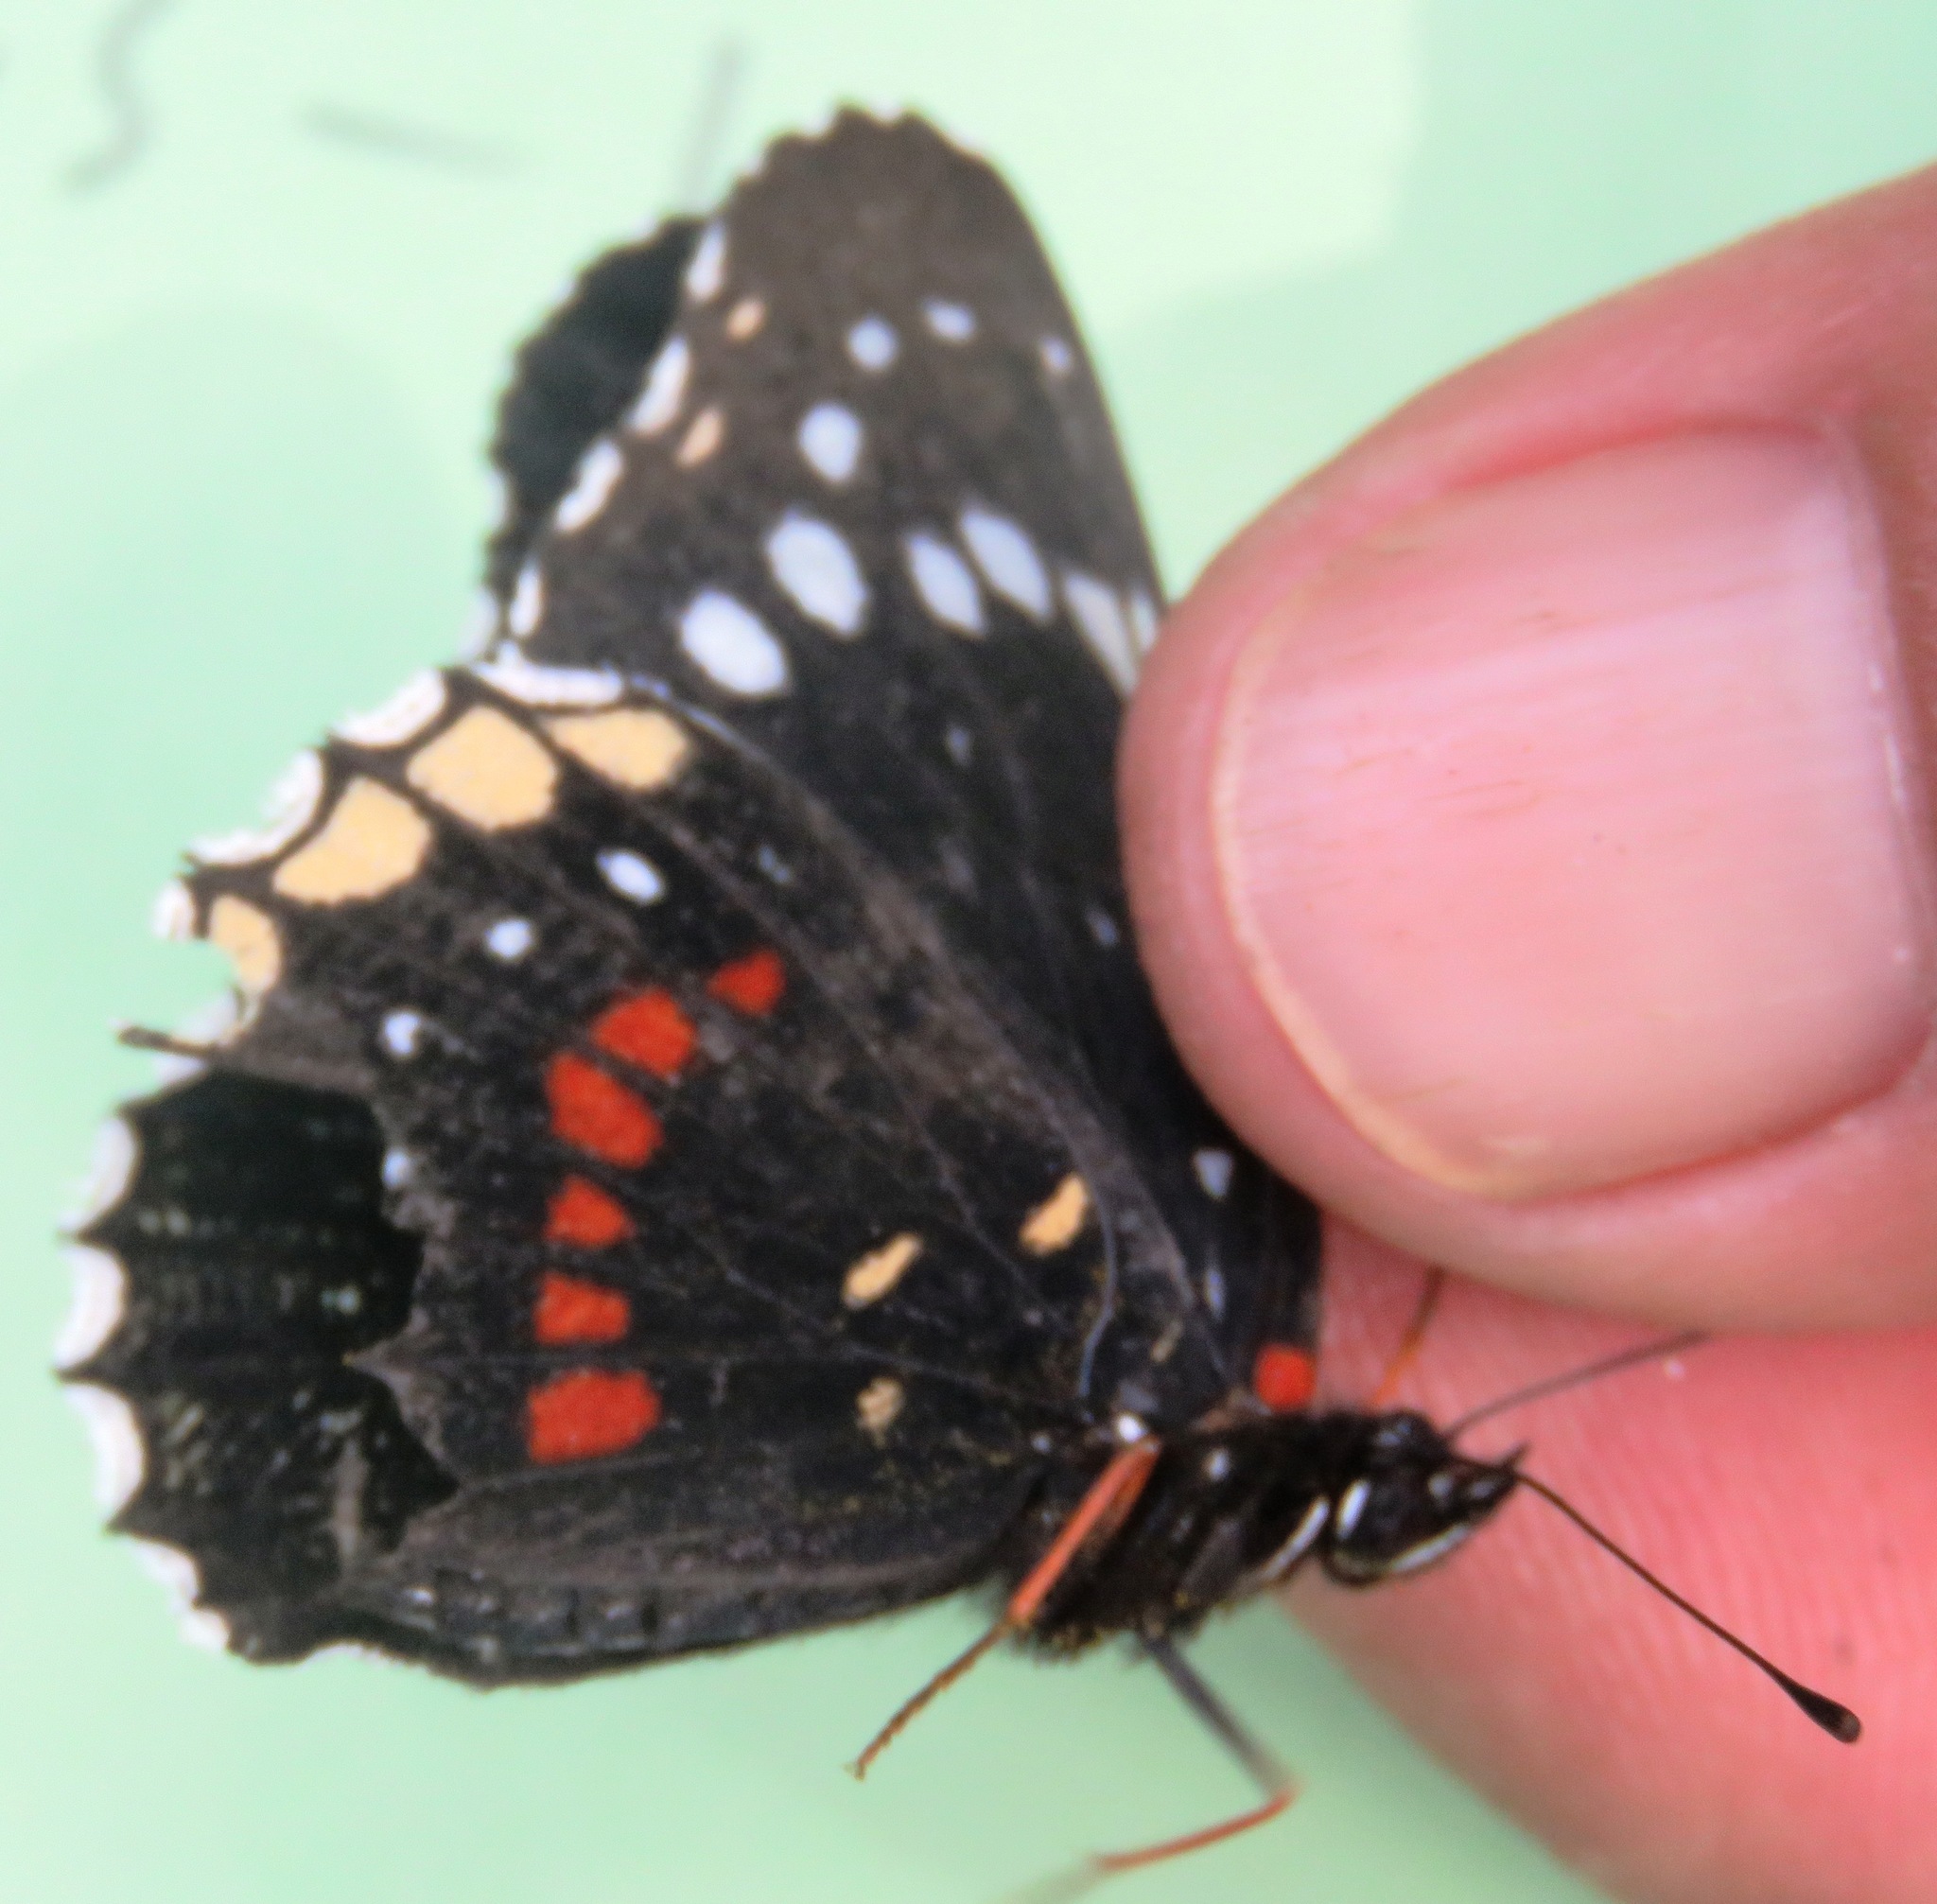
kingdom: Animalia
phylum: Arthropoda
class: Insecta
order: Lepidoptera
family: Nymphalidae
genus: Chlosyne
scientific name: Chlosyne hippodrome
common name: Simple patch
